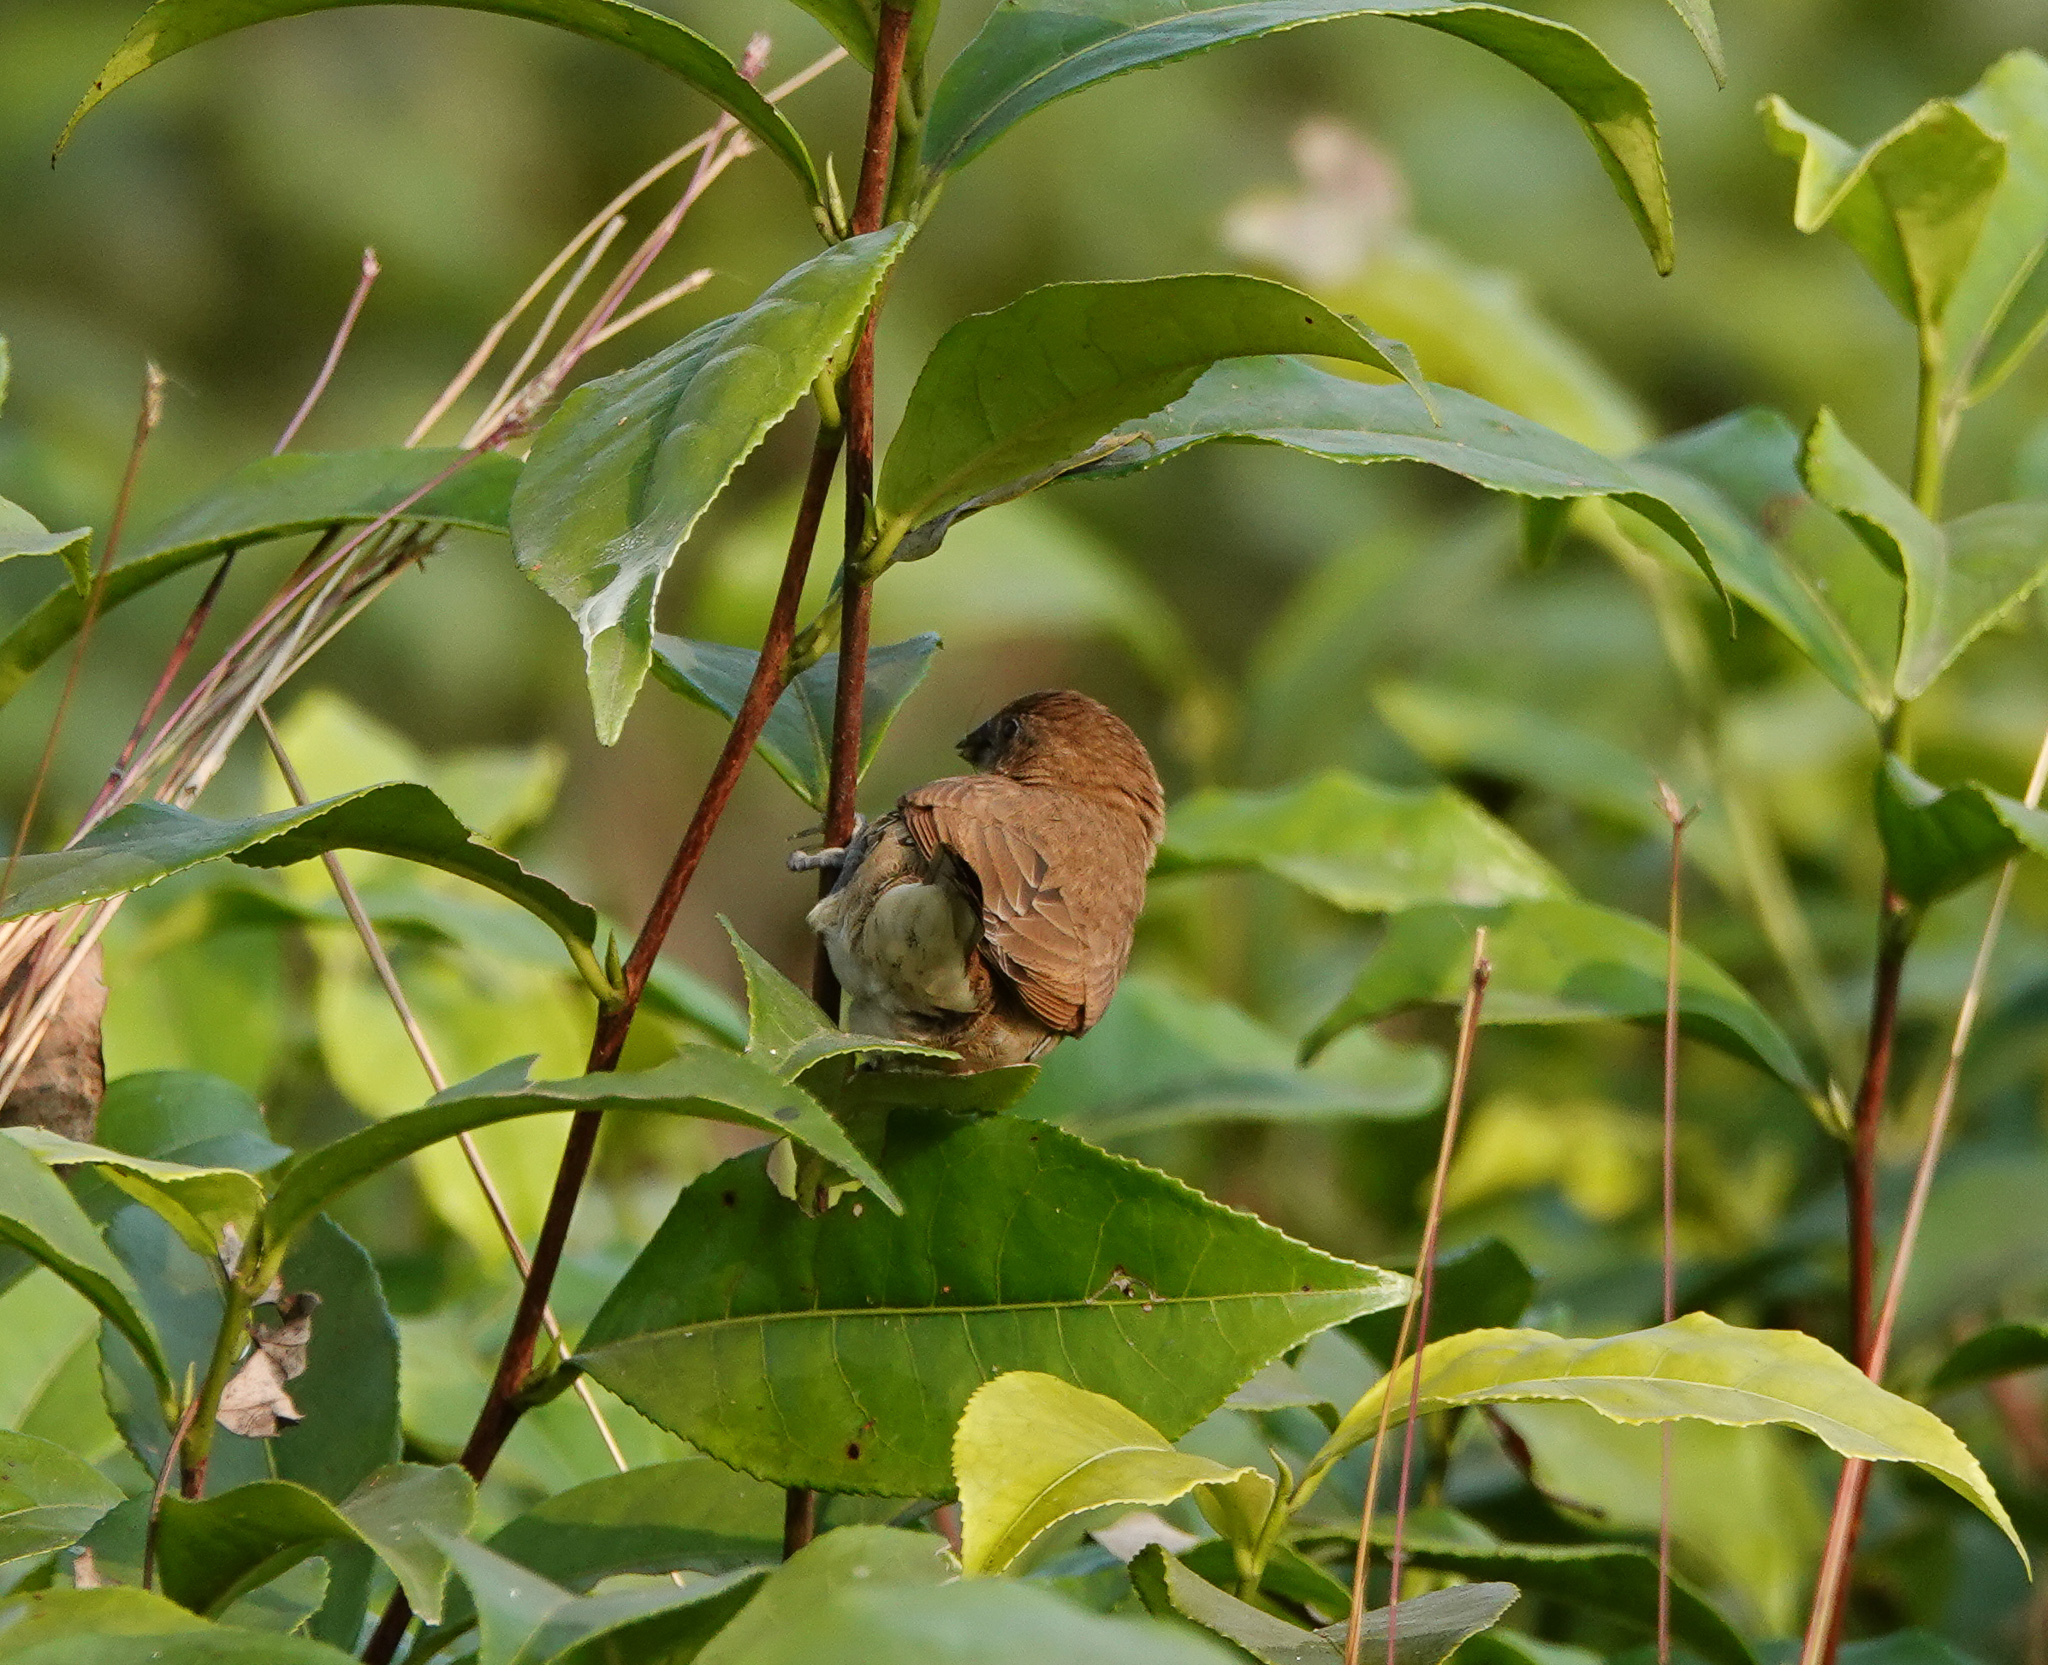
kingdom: Animalia
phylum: Chordata
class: Aves
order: Passeriformes
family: Estrildidae
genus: Lonchura
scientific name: Lonchura punctulata
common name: Scaly-breasted munia
